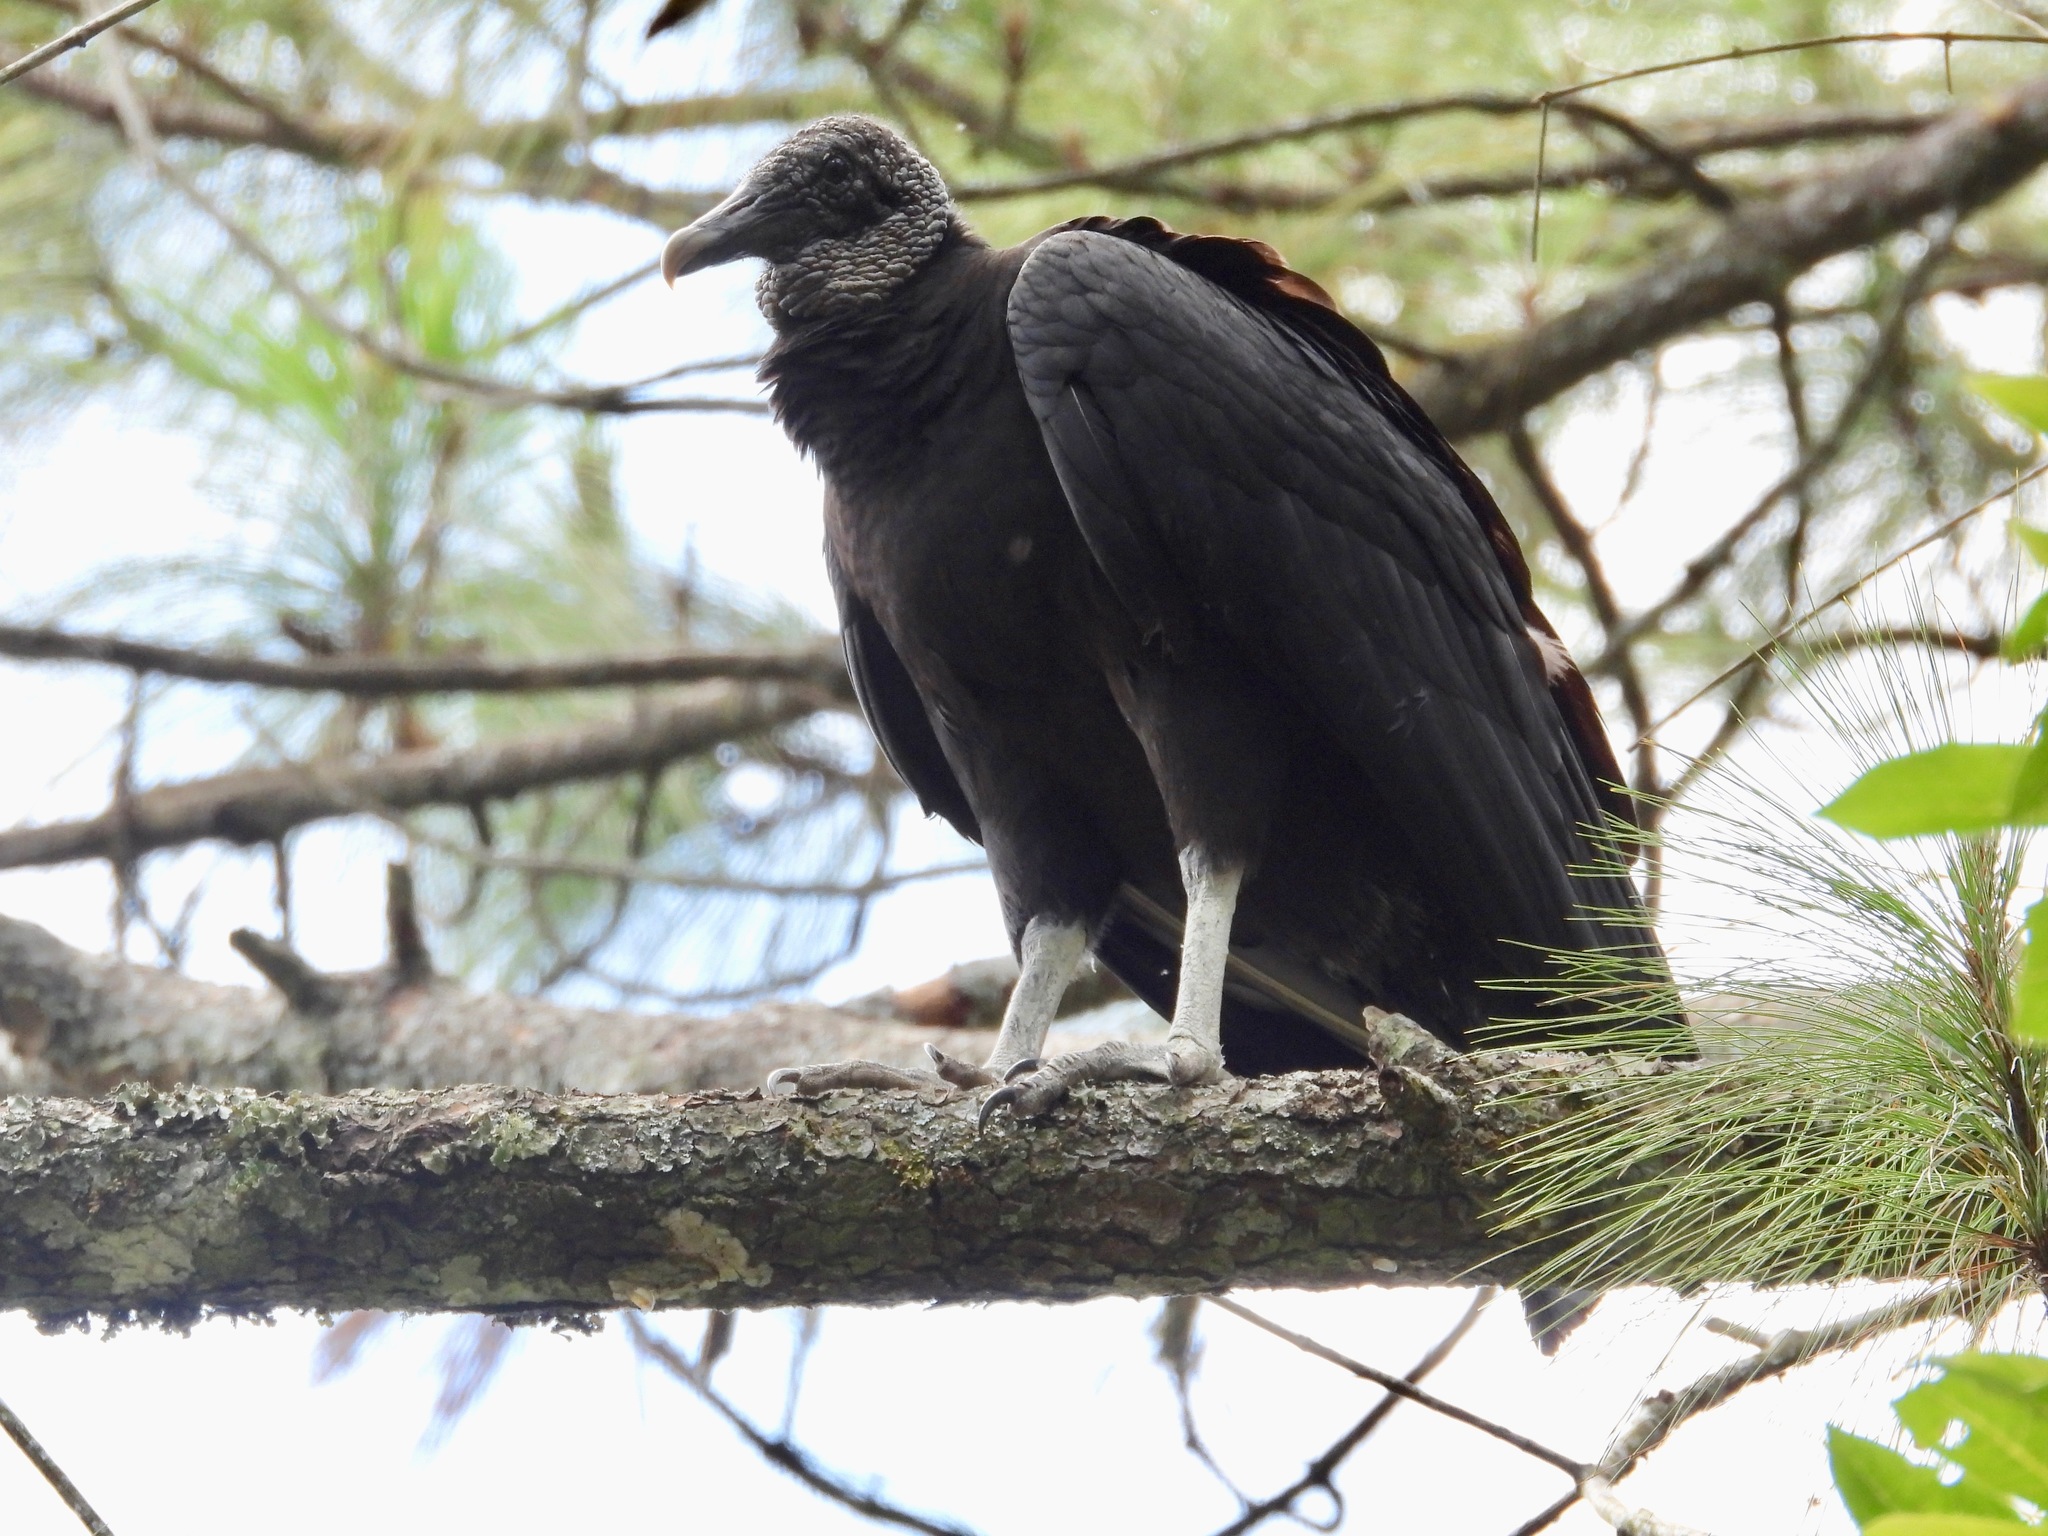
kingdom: Animalia
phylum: Chordata
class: Aves
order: Accipitriformes
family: Cathartidae
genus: Coragyps
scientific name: Coragyps atratus
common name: Black vulture
